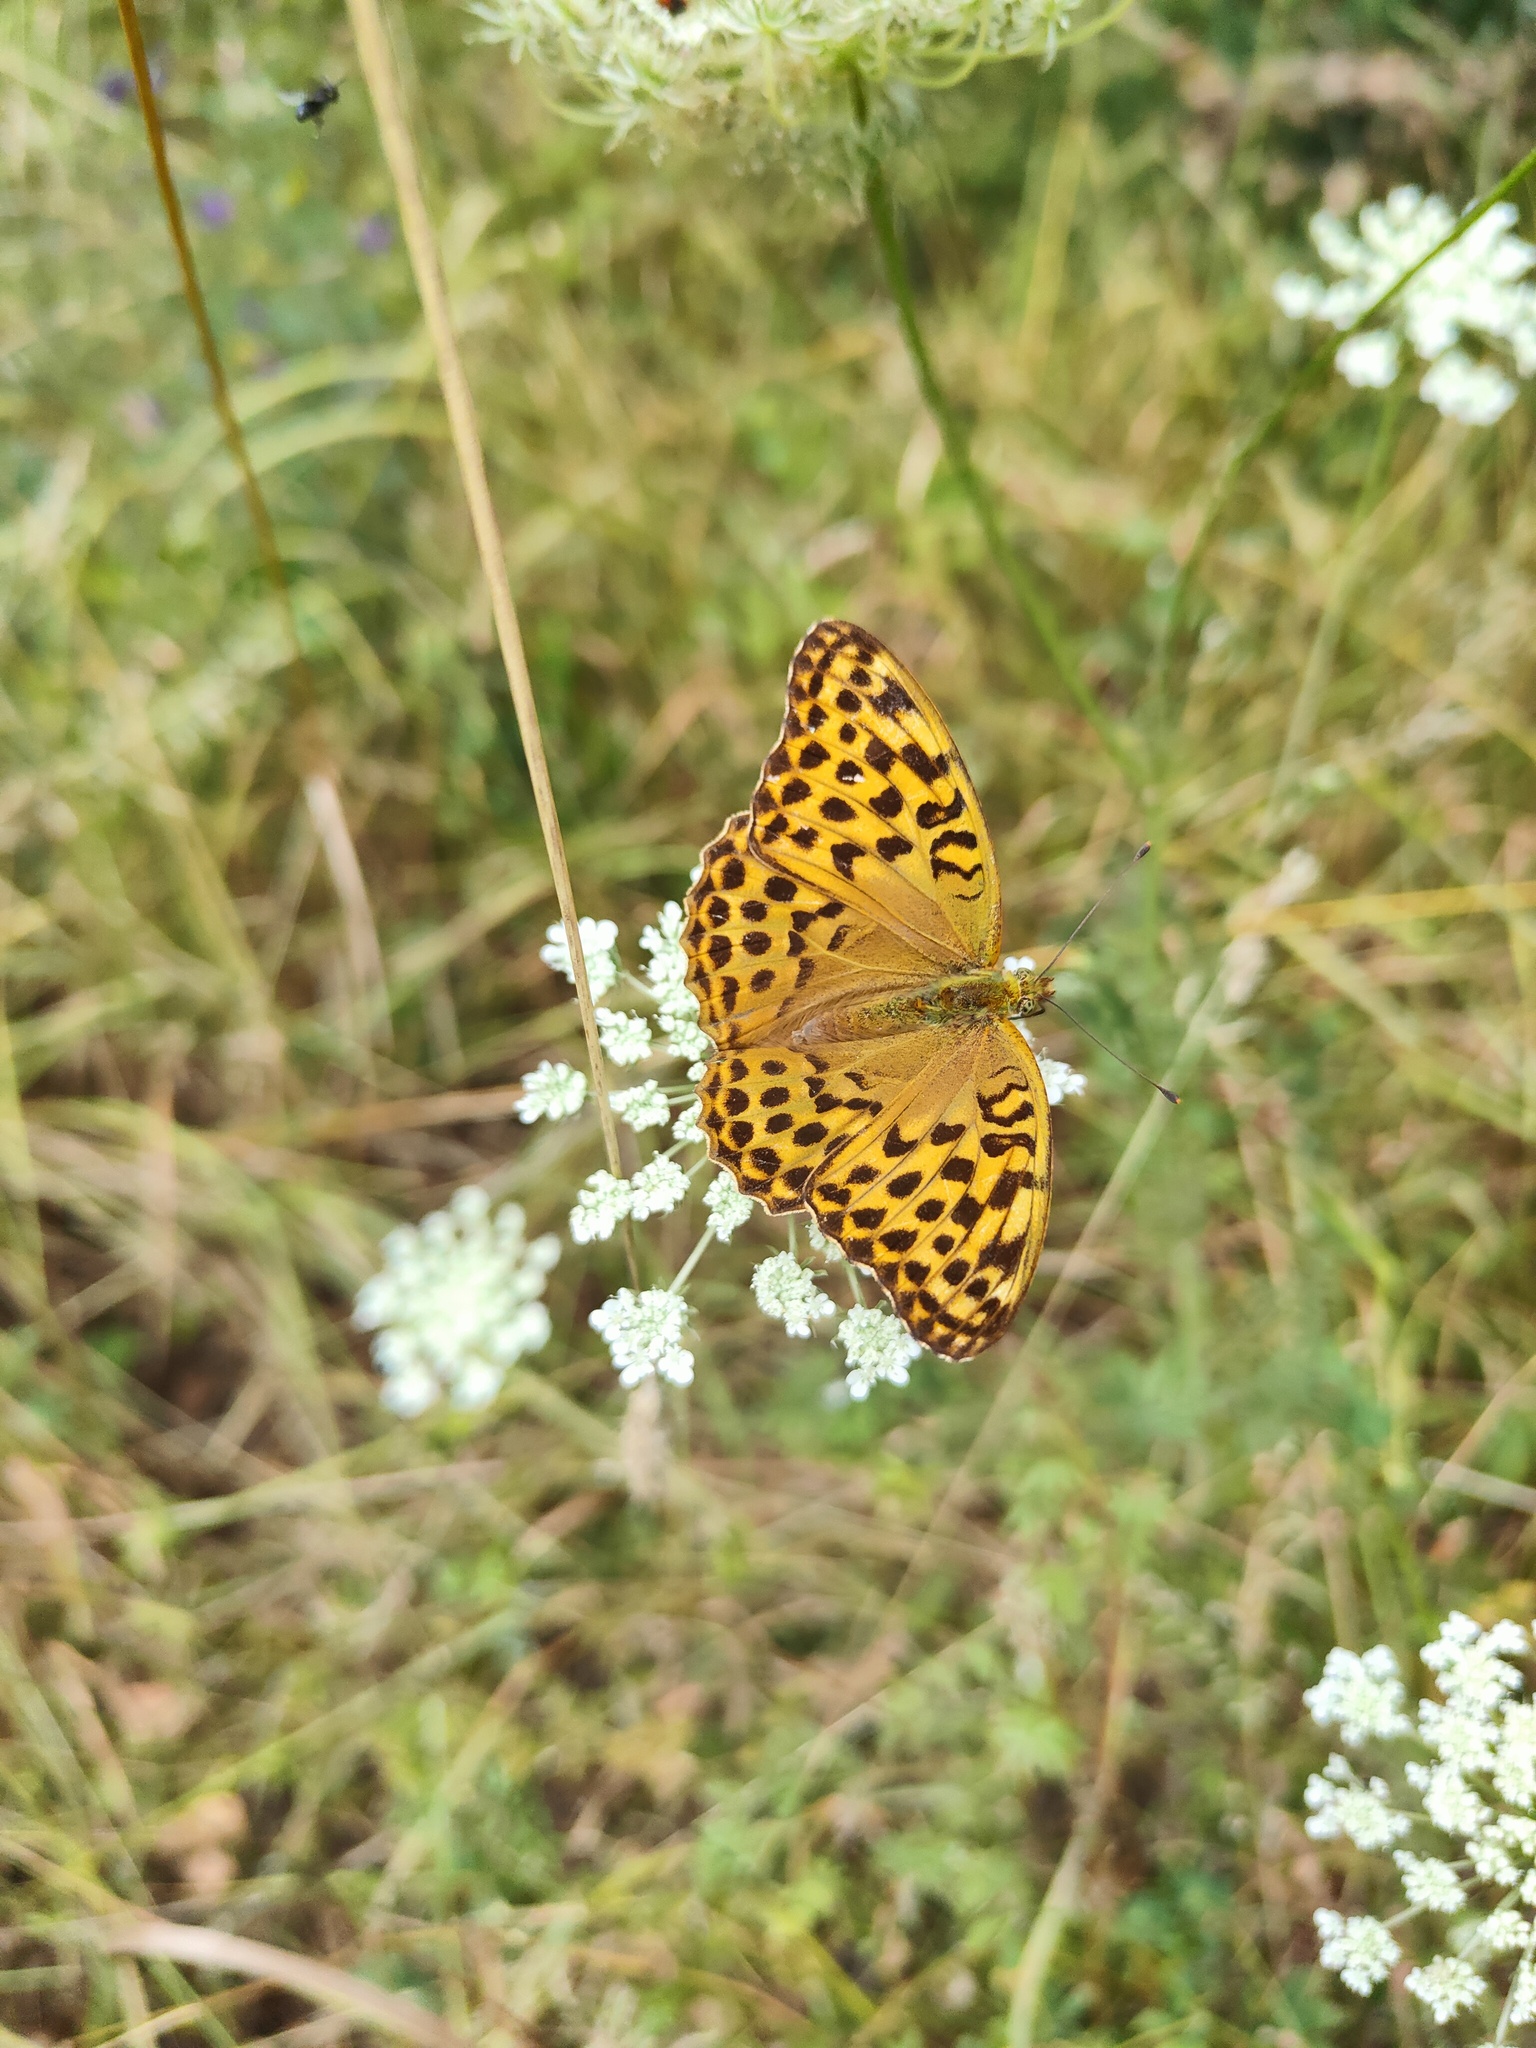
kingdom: Animalia
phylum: Arthropoda
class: Insecta
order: Lepidoptera
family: Nymphalidae
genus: Argynnis
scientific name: Argynnis paphia
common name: Silver-washed fritillary
